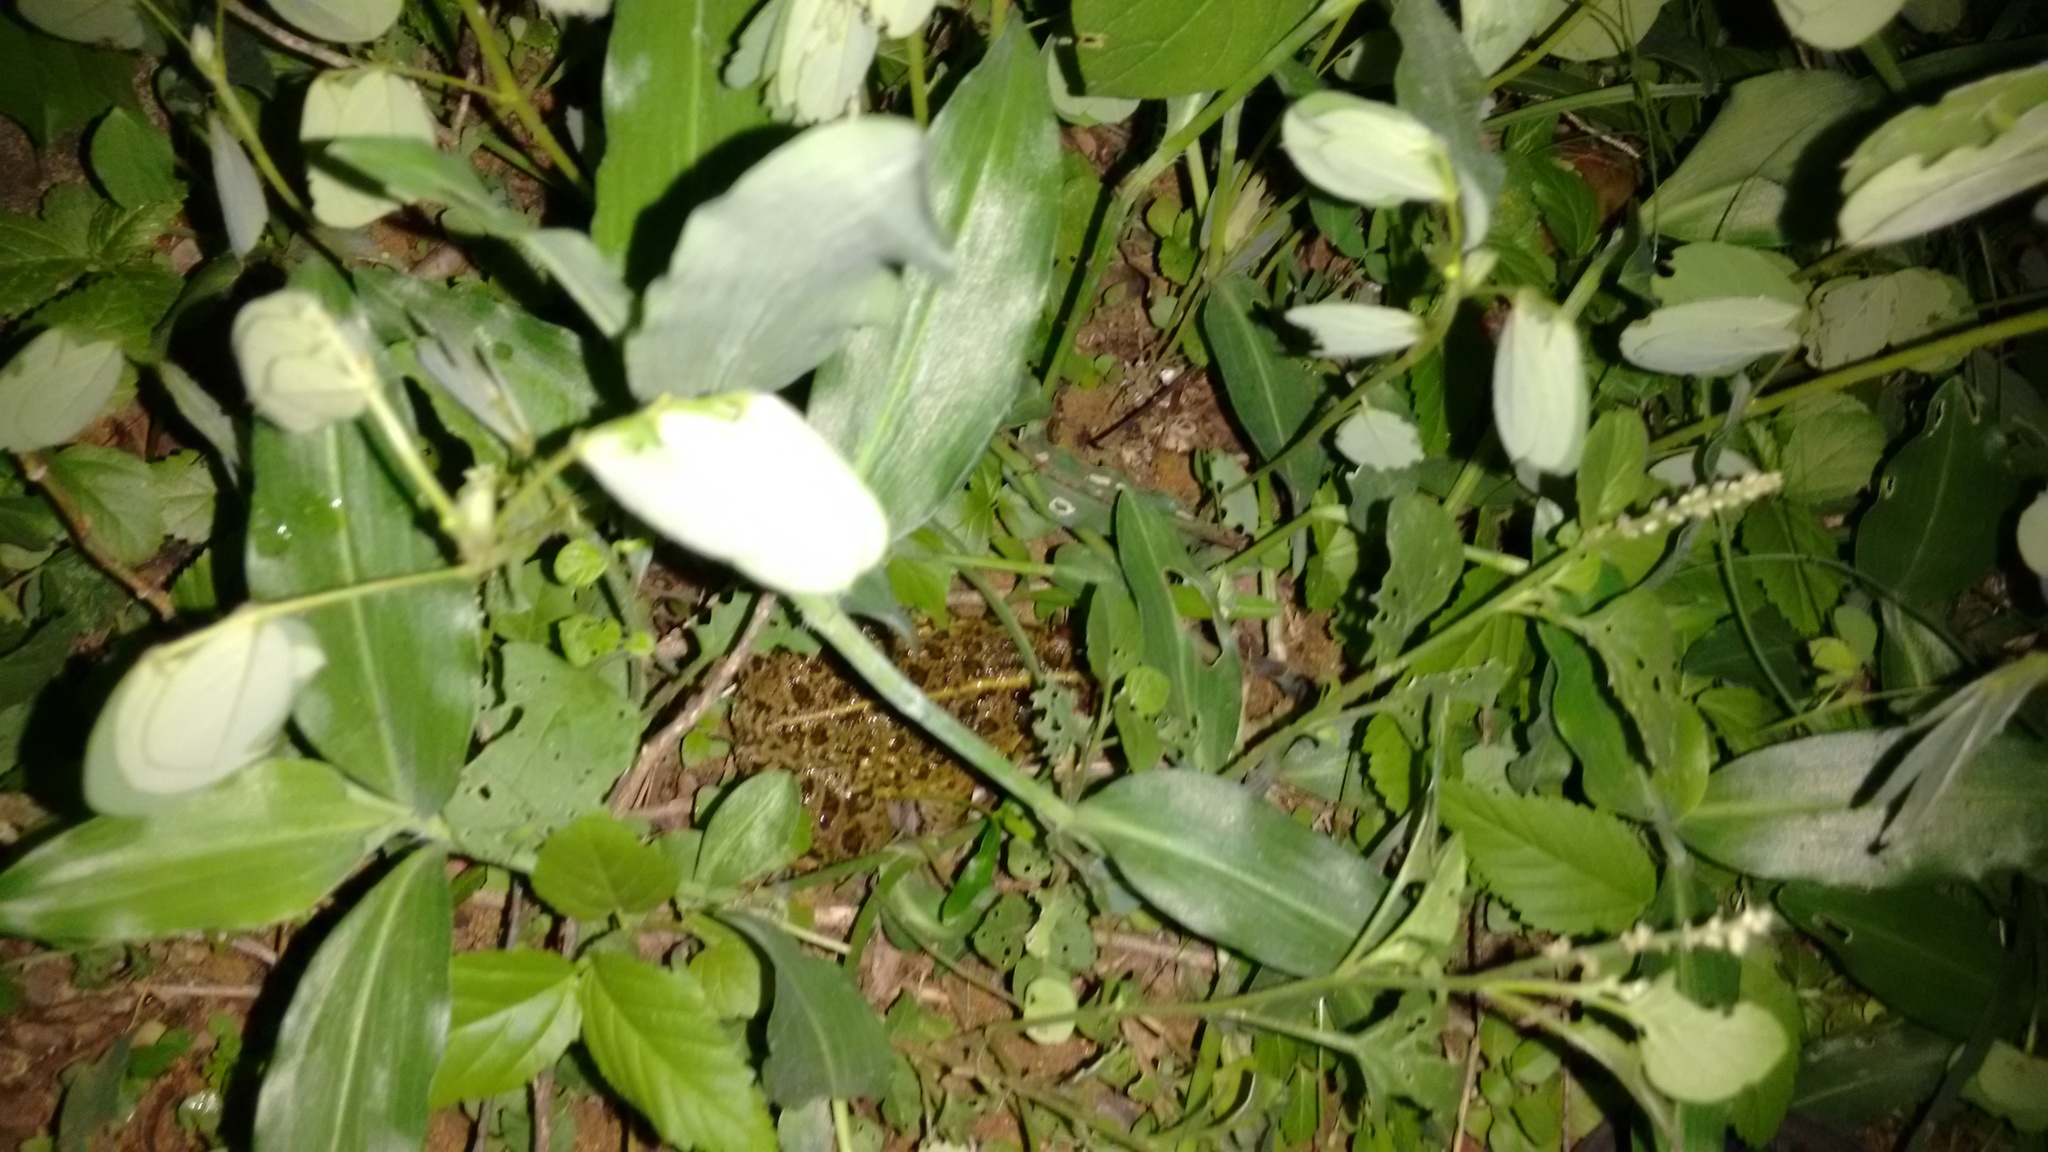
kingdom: Animalia
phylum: Chordata
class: Amphibia
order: Anura
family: Dicroglossidae
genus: Hoplobatrachus
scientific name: Hoplobatrachus tigerinus
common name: Indian bullfrog
